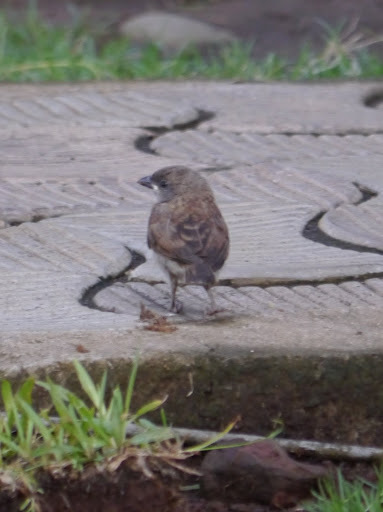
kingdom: Animalia
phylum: Chordata
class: Aves
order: Passeriformes
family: Passeridae
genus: Passer
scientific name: Passer griseus
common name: Northern grey-headed sparrow
